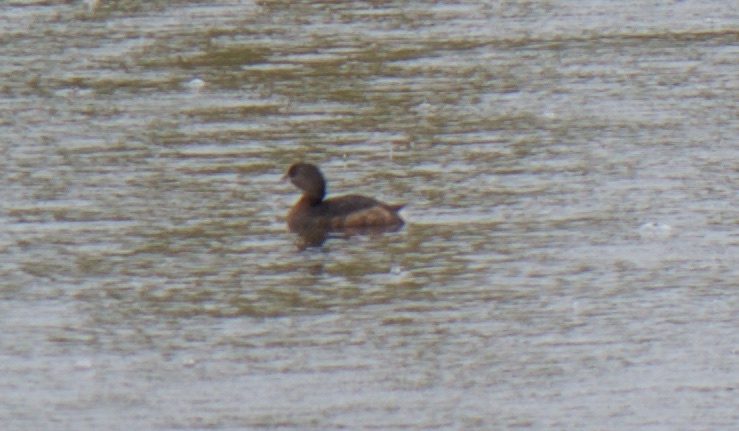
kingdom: Animalia
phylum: Chordata
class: Aves
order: Podicipediformes
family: Podicipedidae
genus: Podilymbus
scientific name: Podilymbus podiceps
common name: Pied-billed grebe
